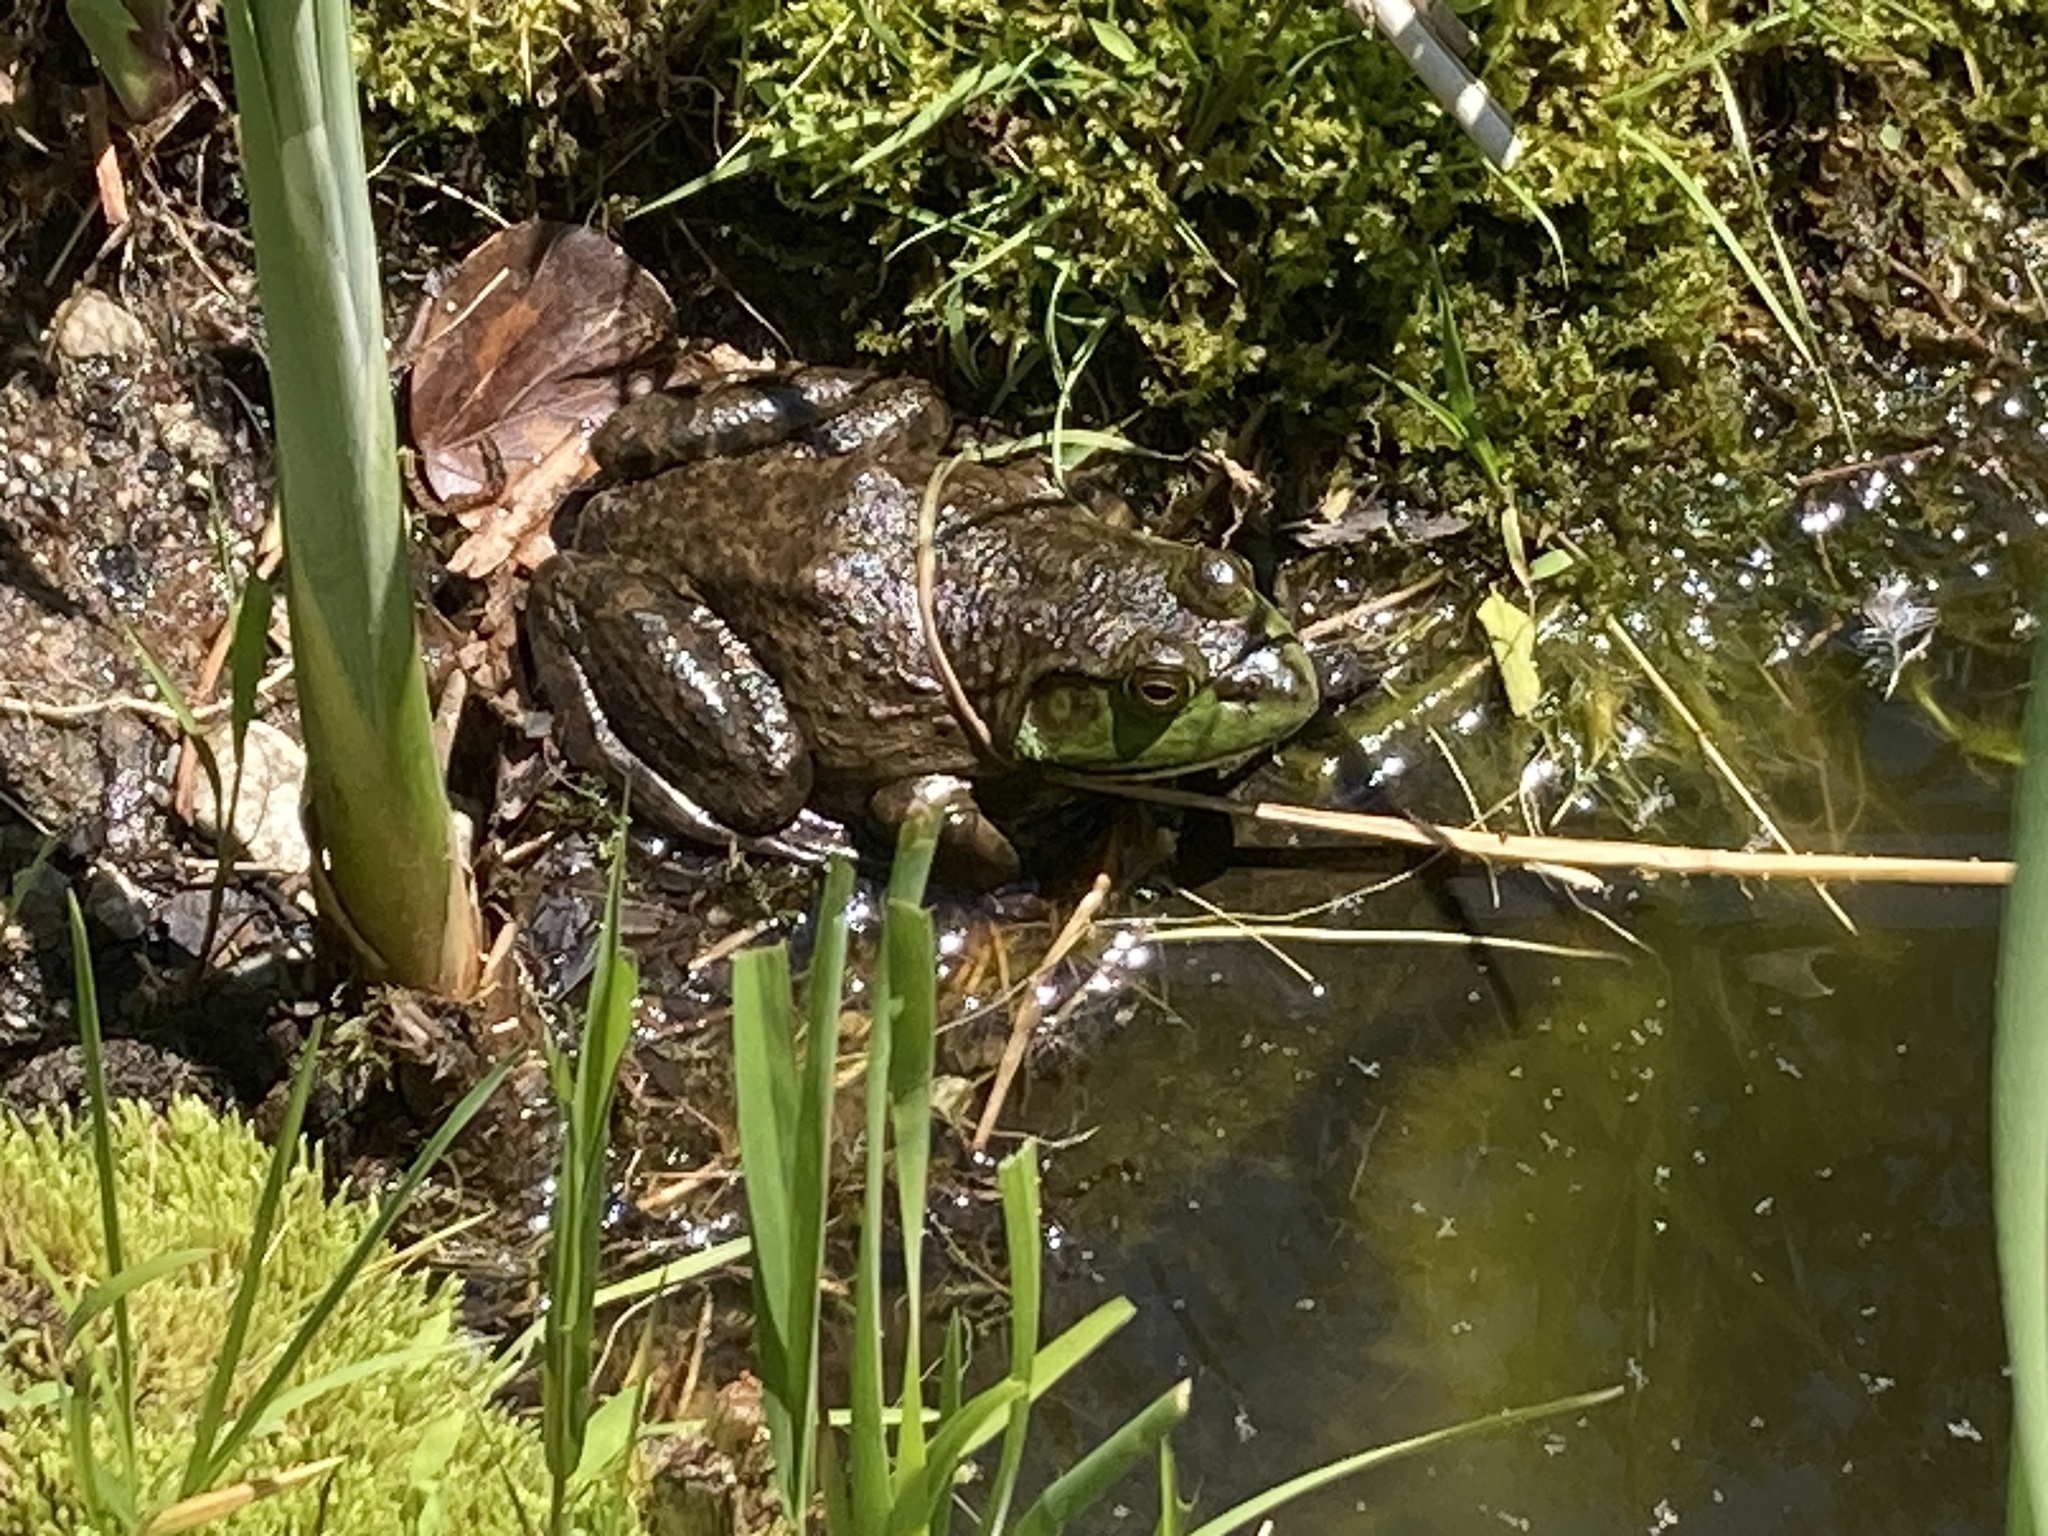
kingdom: Animalia
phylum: Chordata
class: Amphibia
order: Anura
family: Ranidae
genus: Lithobates
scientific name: Lithobates catesbeianus
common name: American bullfrog
